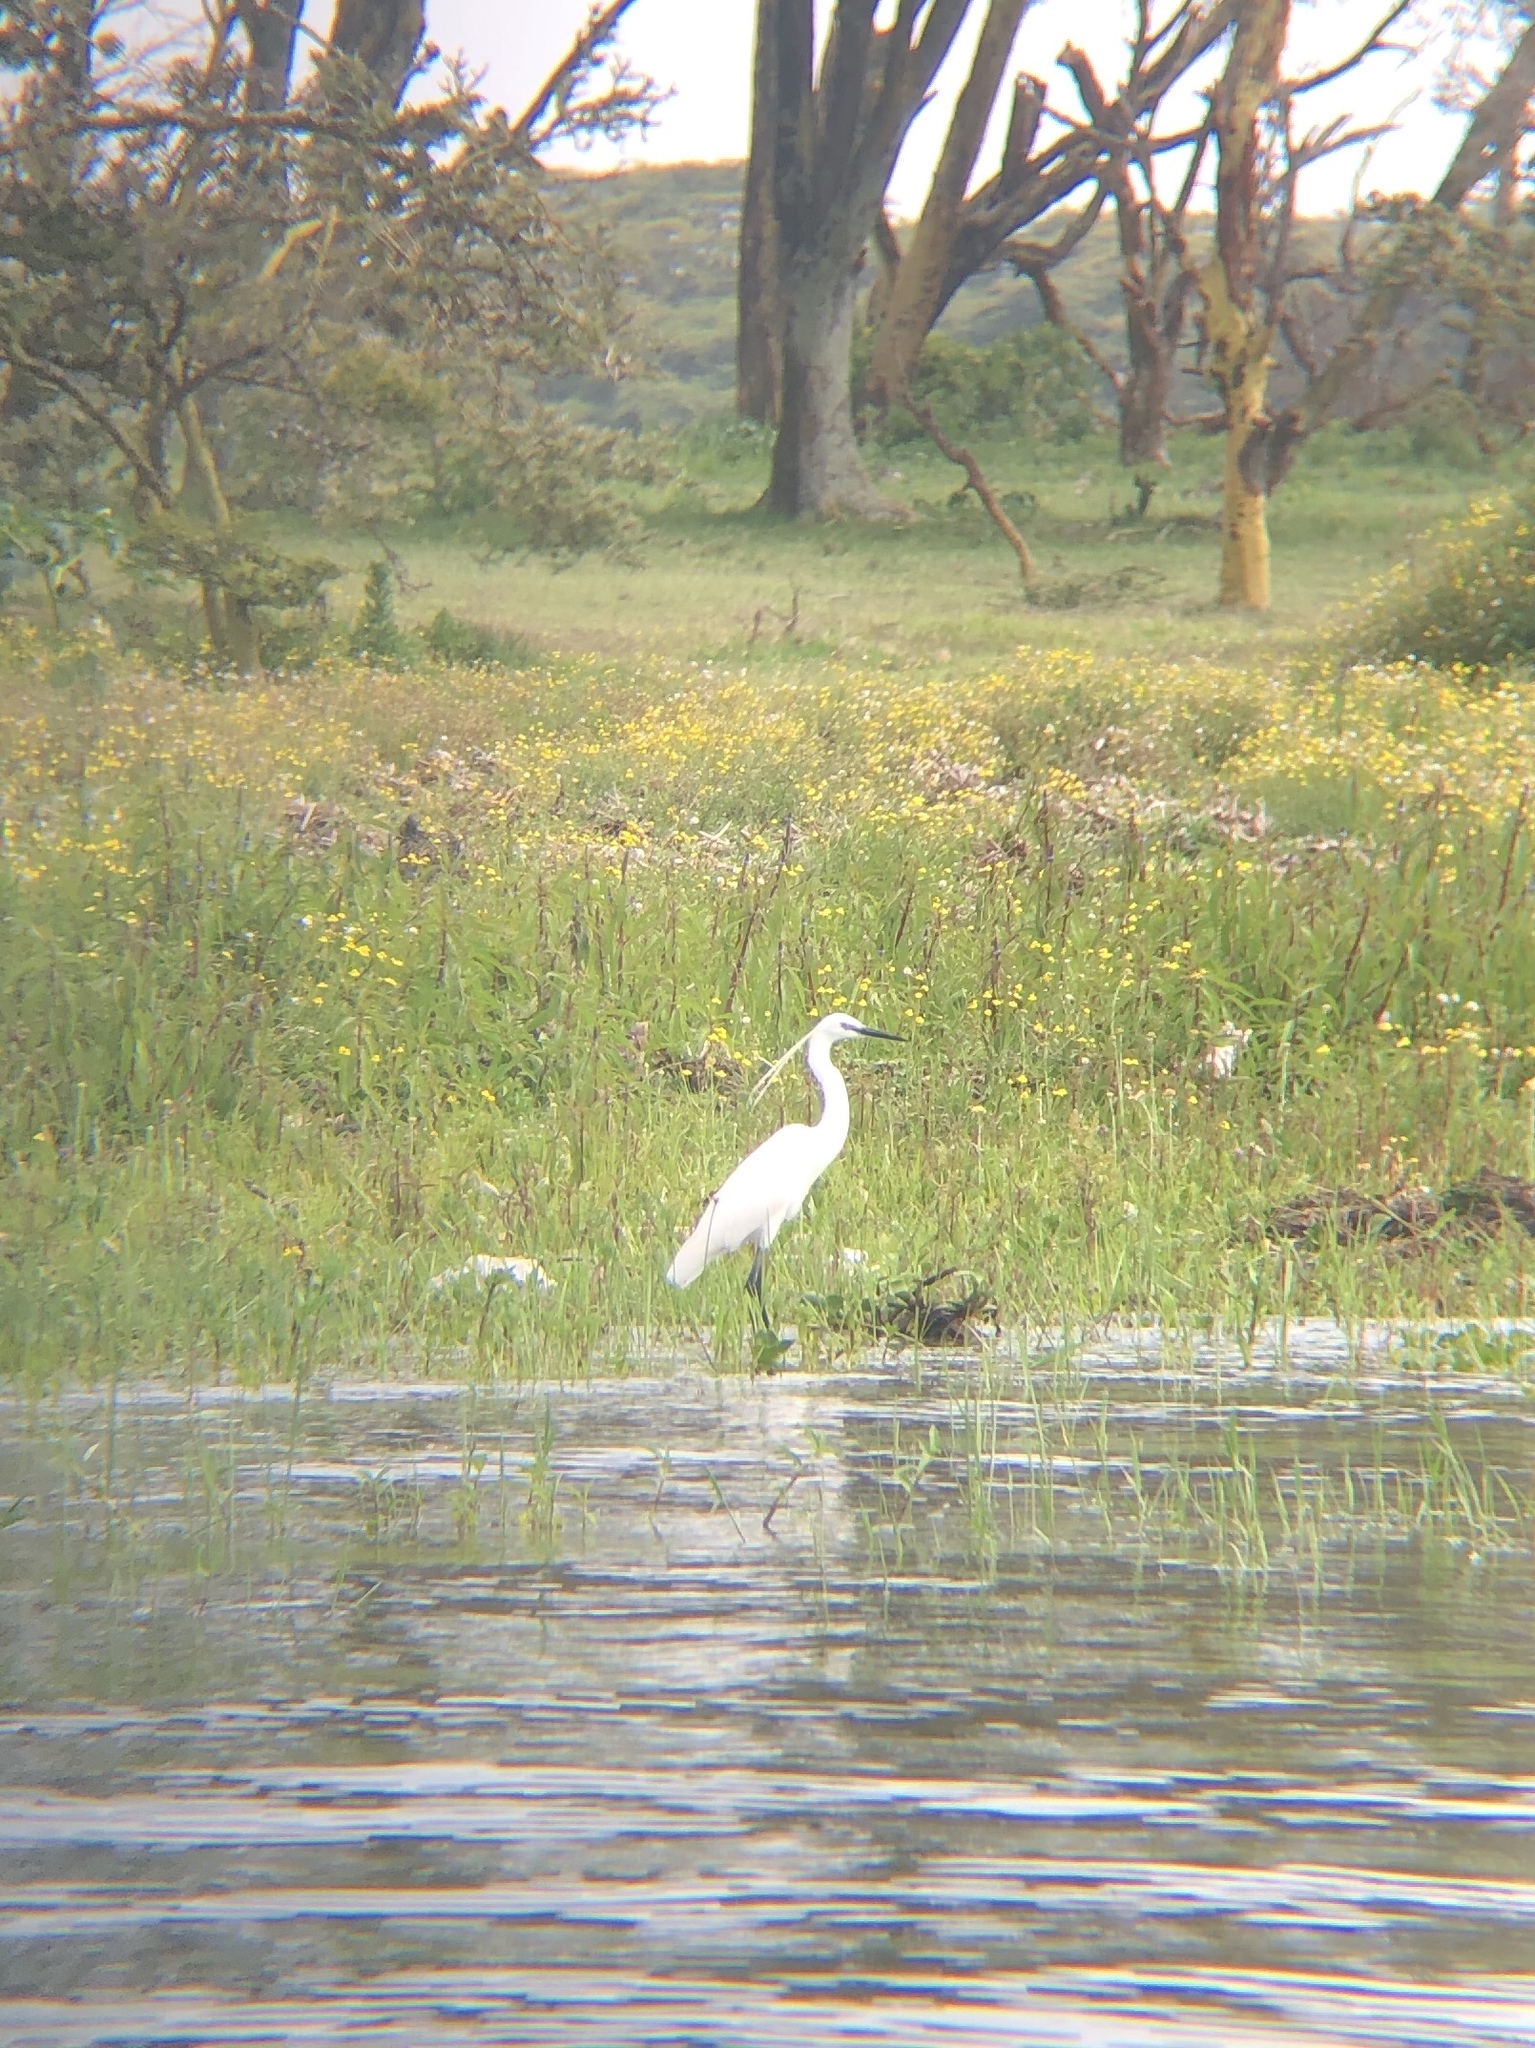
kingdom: Animalia
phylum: Chordata
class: Aves
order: Pelecaniformes
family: Ardeidae
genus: Egretta
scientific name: Egretta garzetta
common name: Little egret
